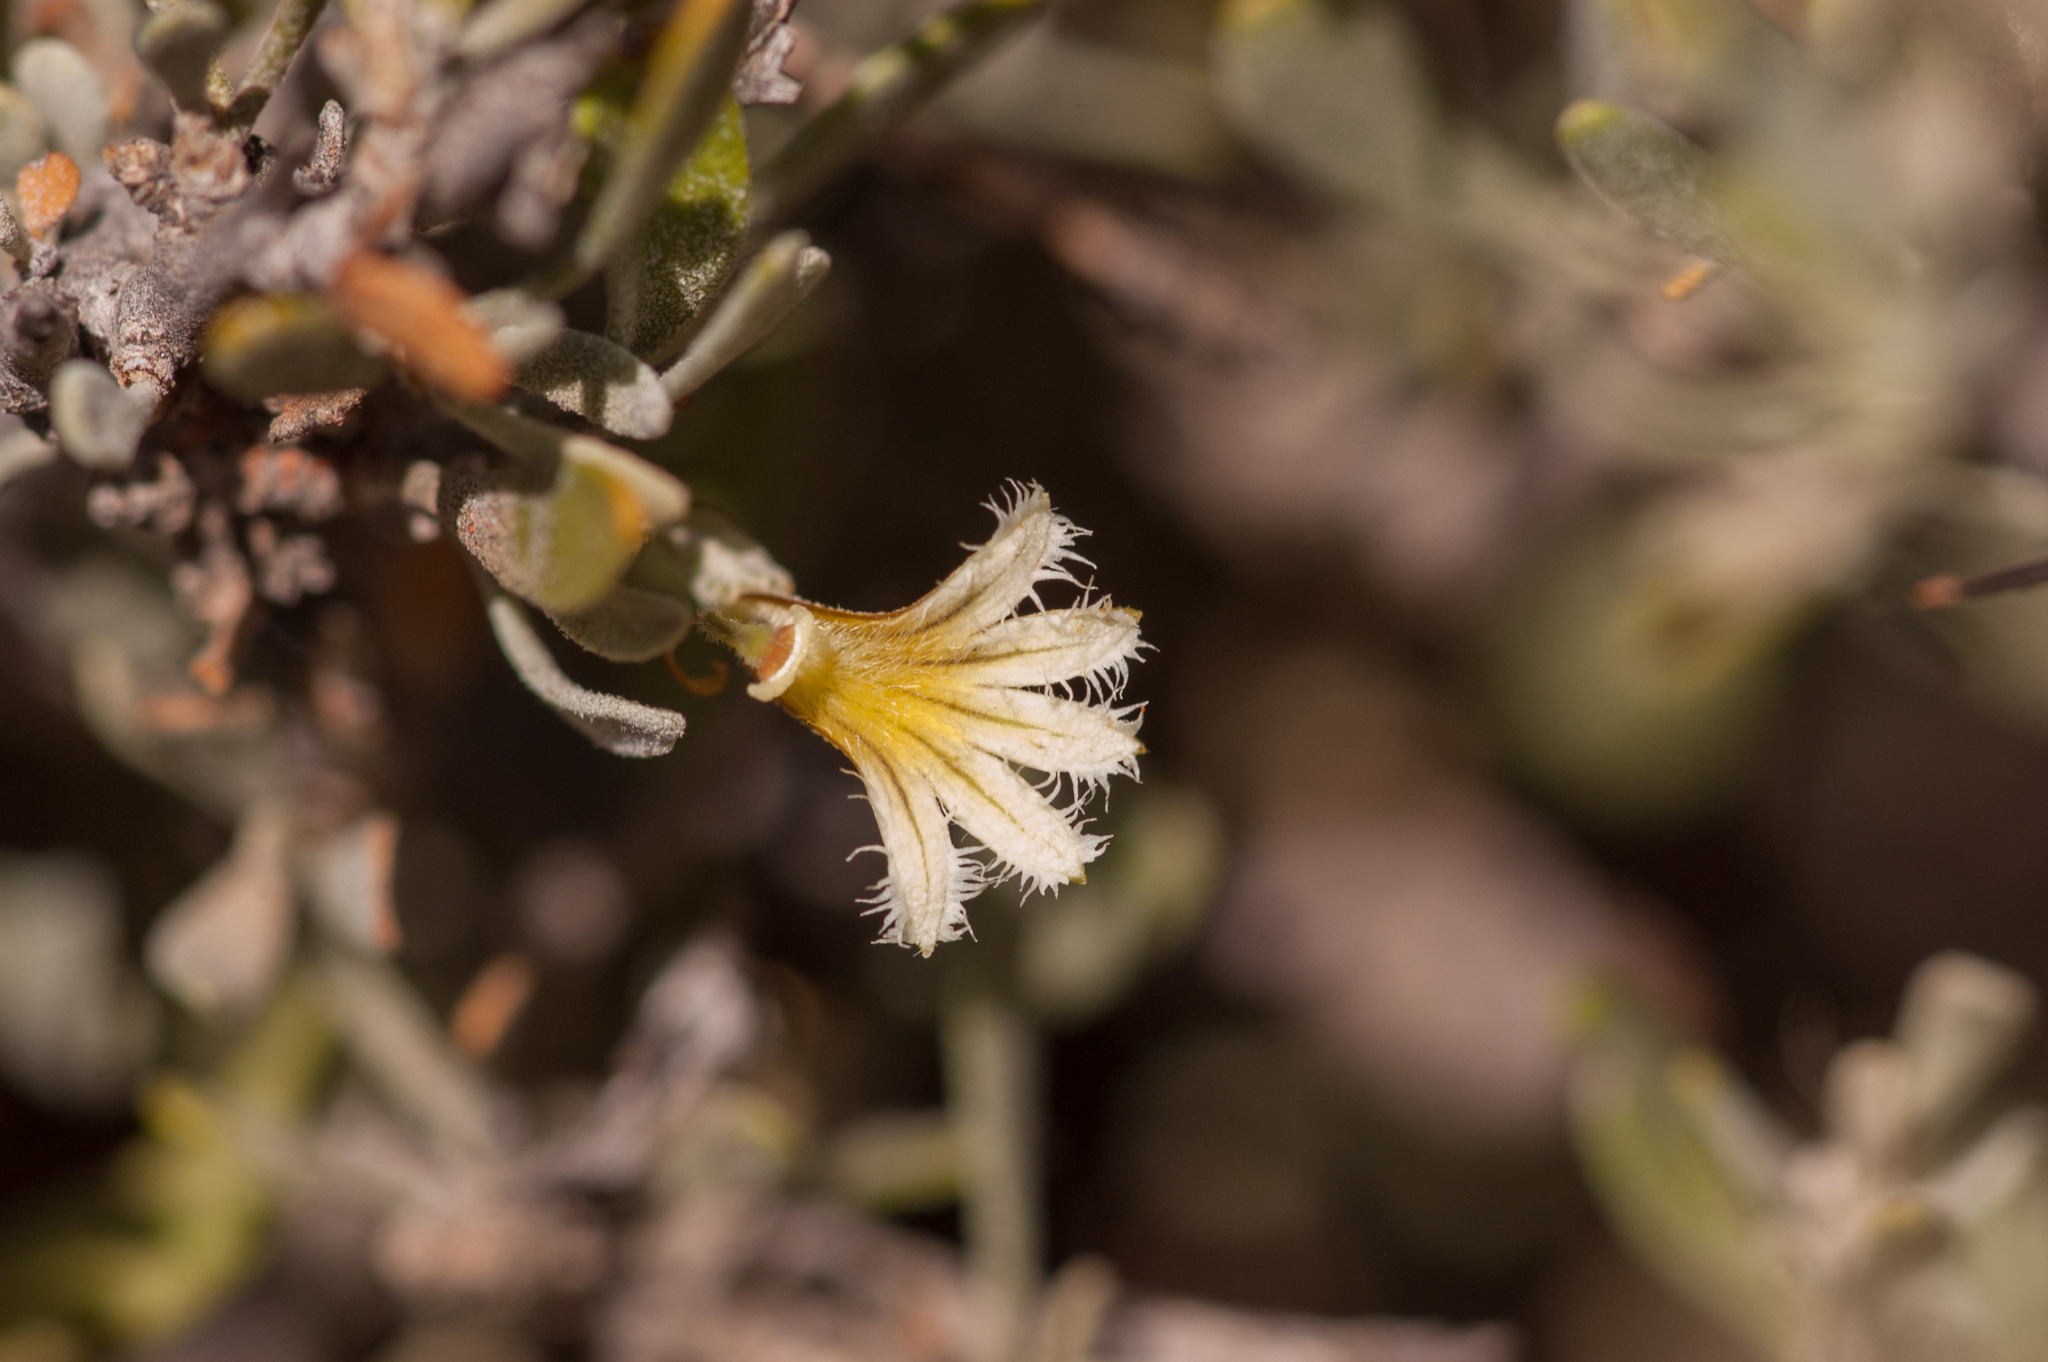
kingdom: Plantae
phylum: Tracheophyta
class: Magnoliopsida
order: Asterales
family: Goodeniaceae
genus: Scaevola
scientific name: Scaevola spinescens
